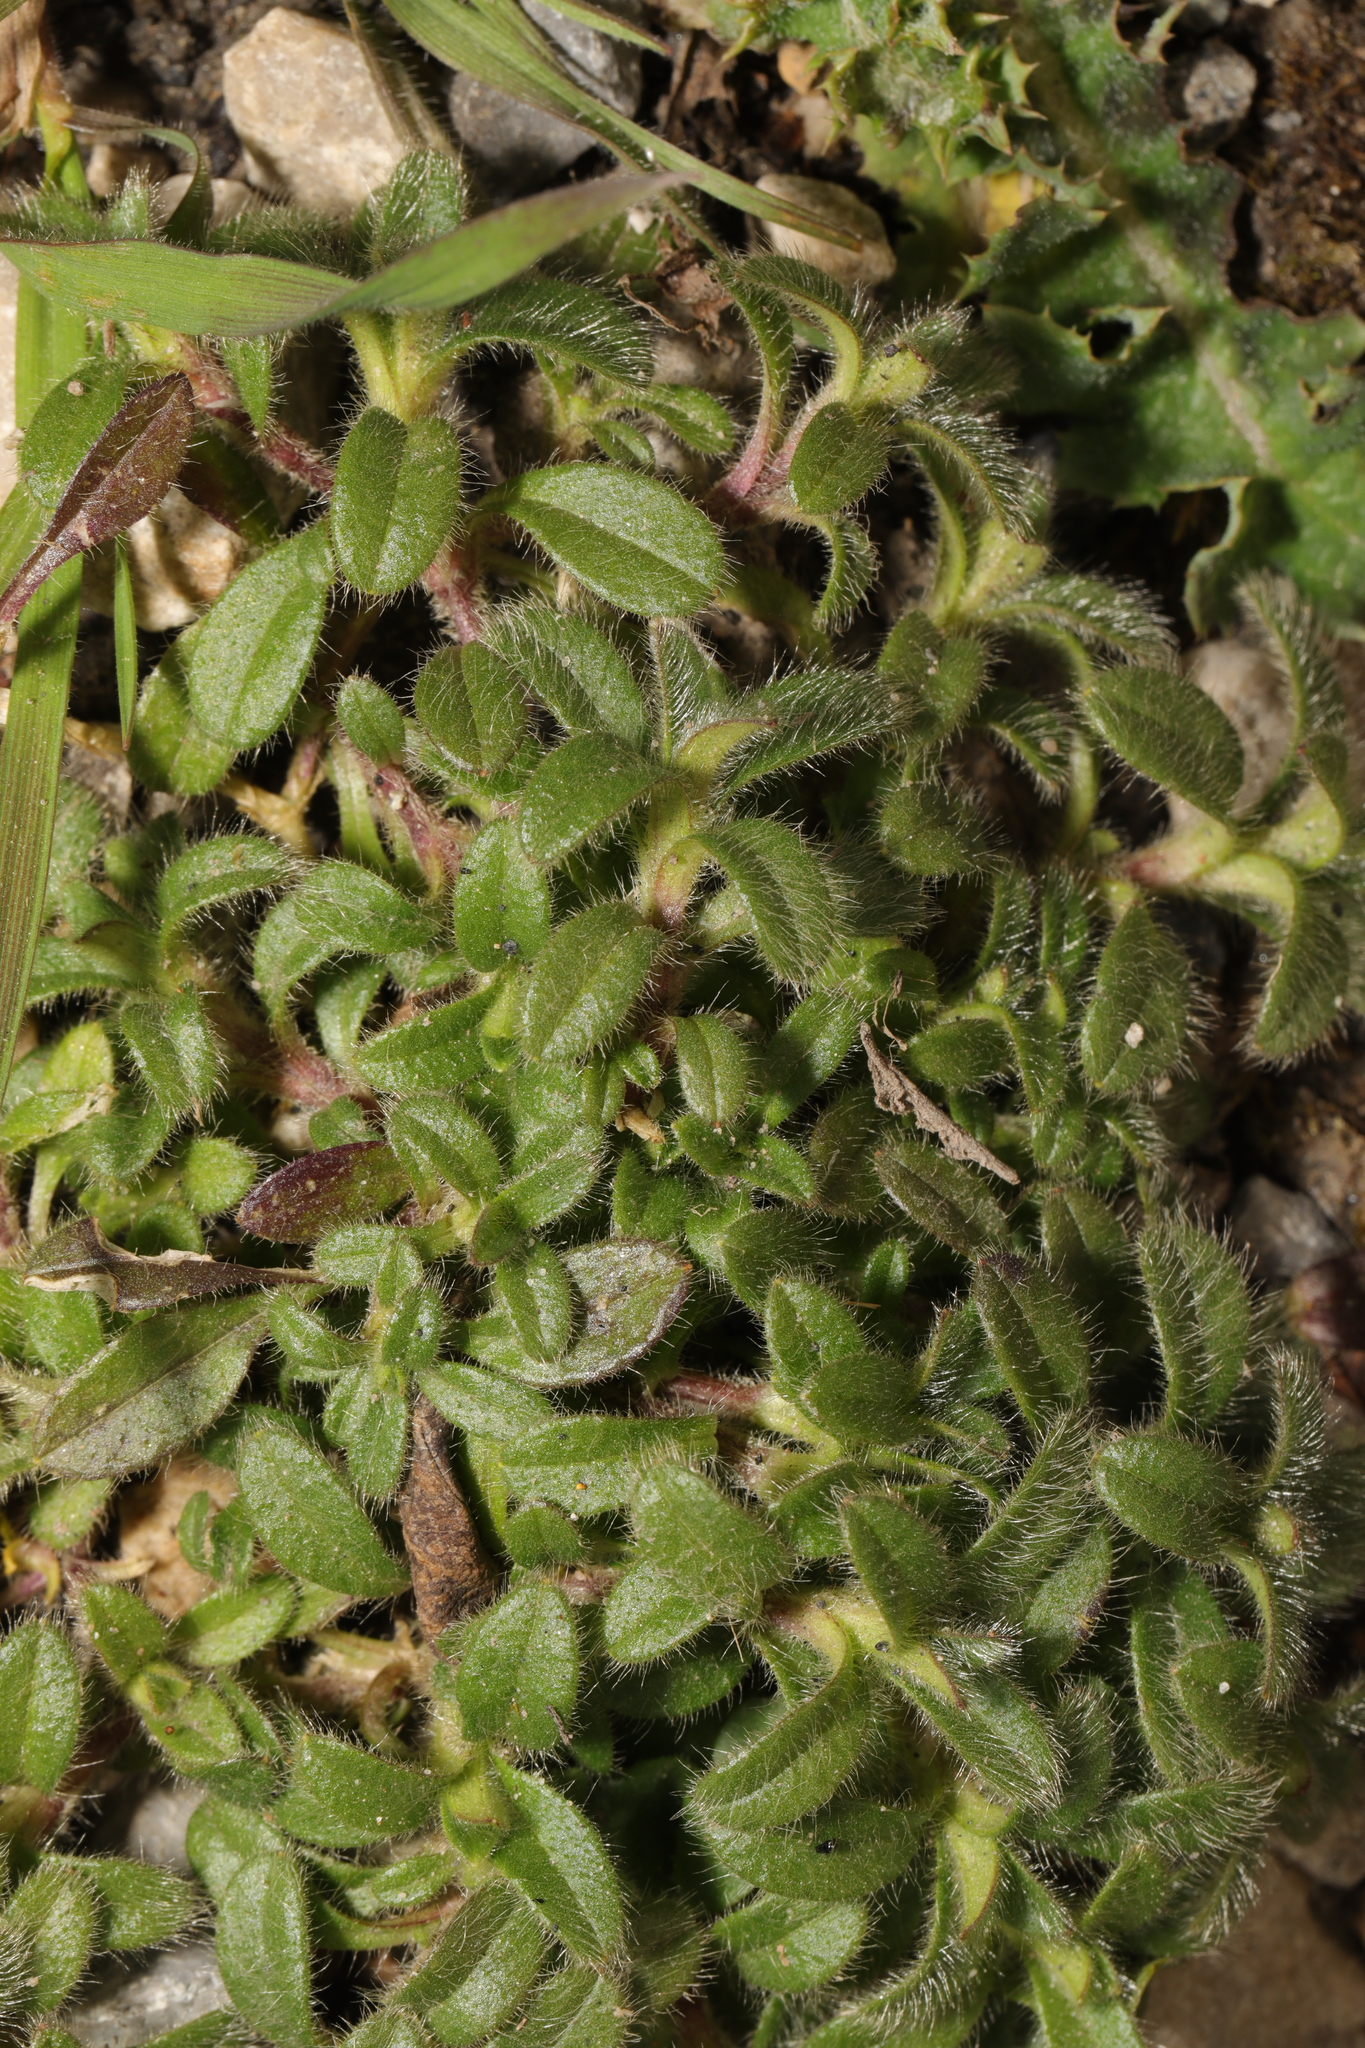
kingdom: Plantae
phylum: Tracheophyta
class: Magnoliopsida
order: Caryophyllales
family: Caryophyllaceae
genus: Cerastium
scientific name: Cerastium fontanum
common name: Common mouse-ear
